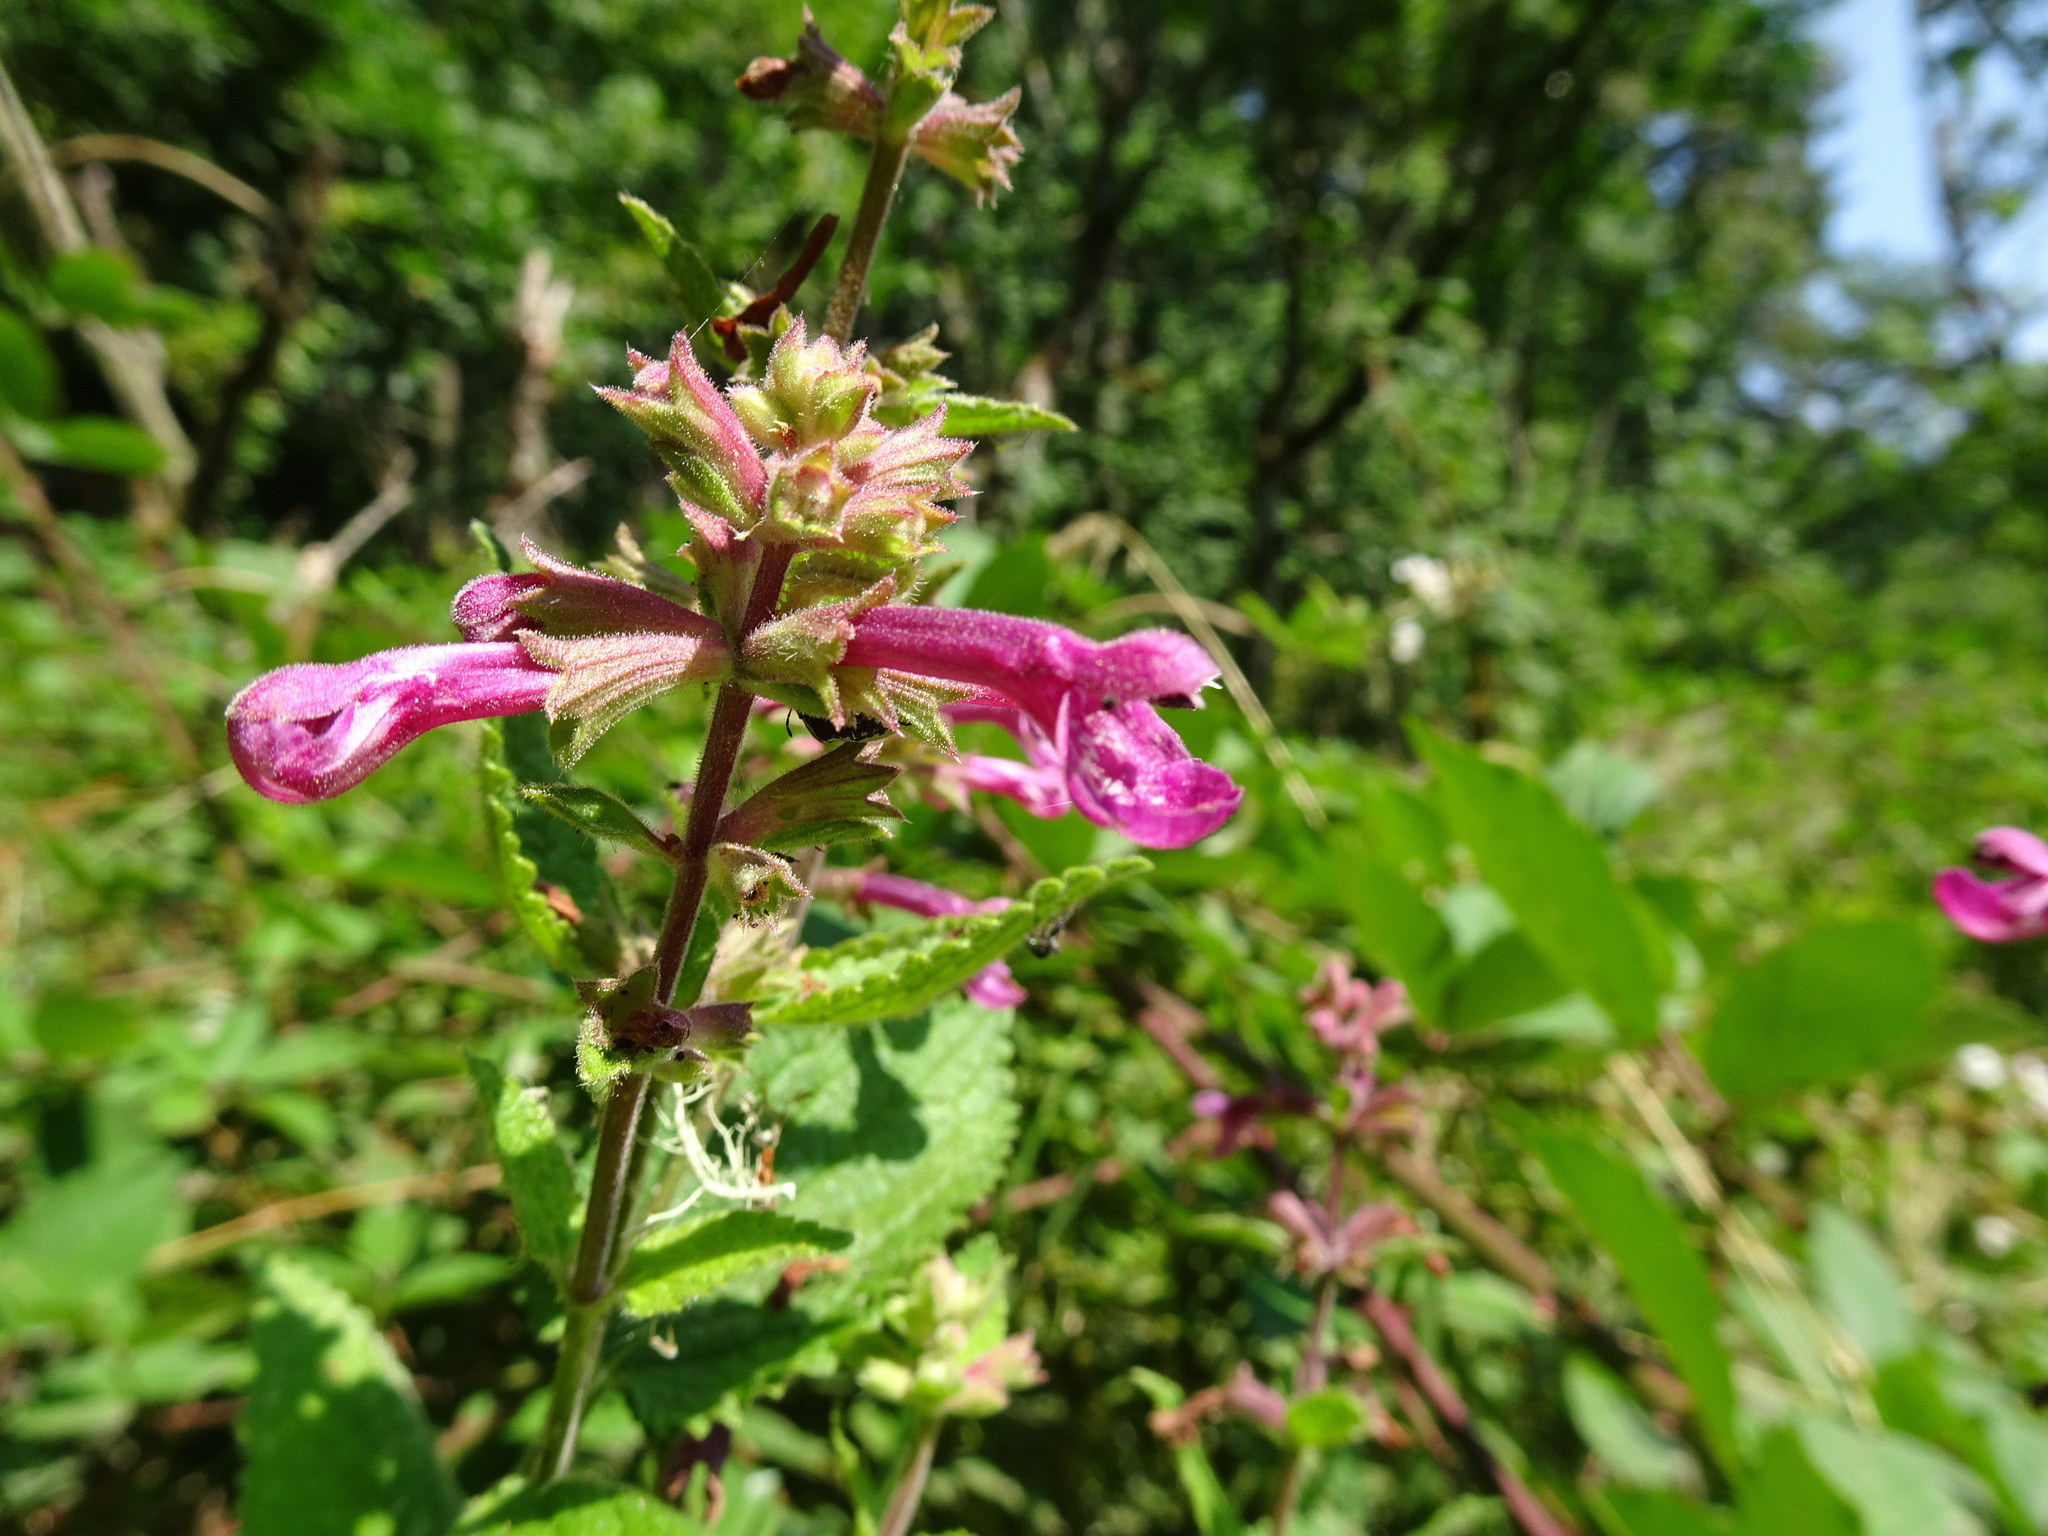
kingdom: Plantae
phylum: Tracheophyta
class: Magnoliopsida
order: Lamiales
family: Lamiaceae
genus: Stachys
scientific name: Stachys chamissonis
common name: Coastal hedge-nettle
